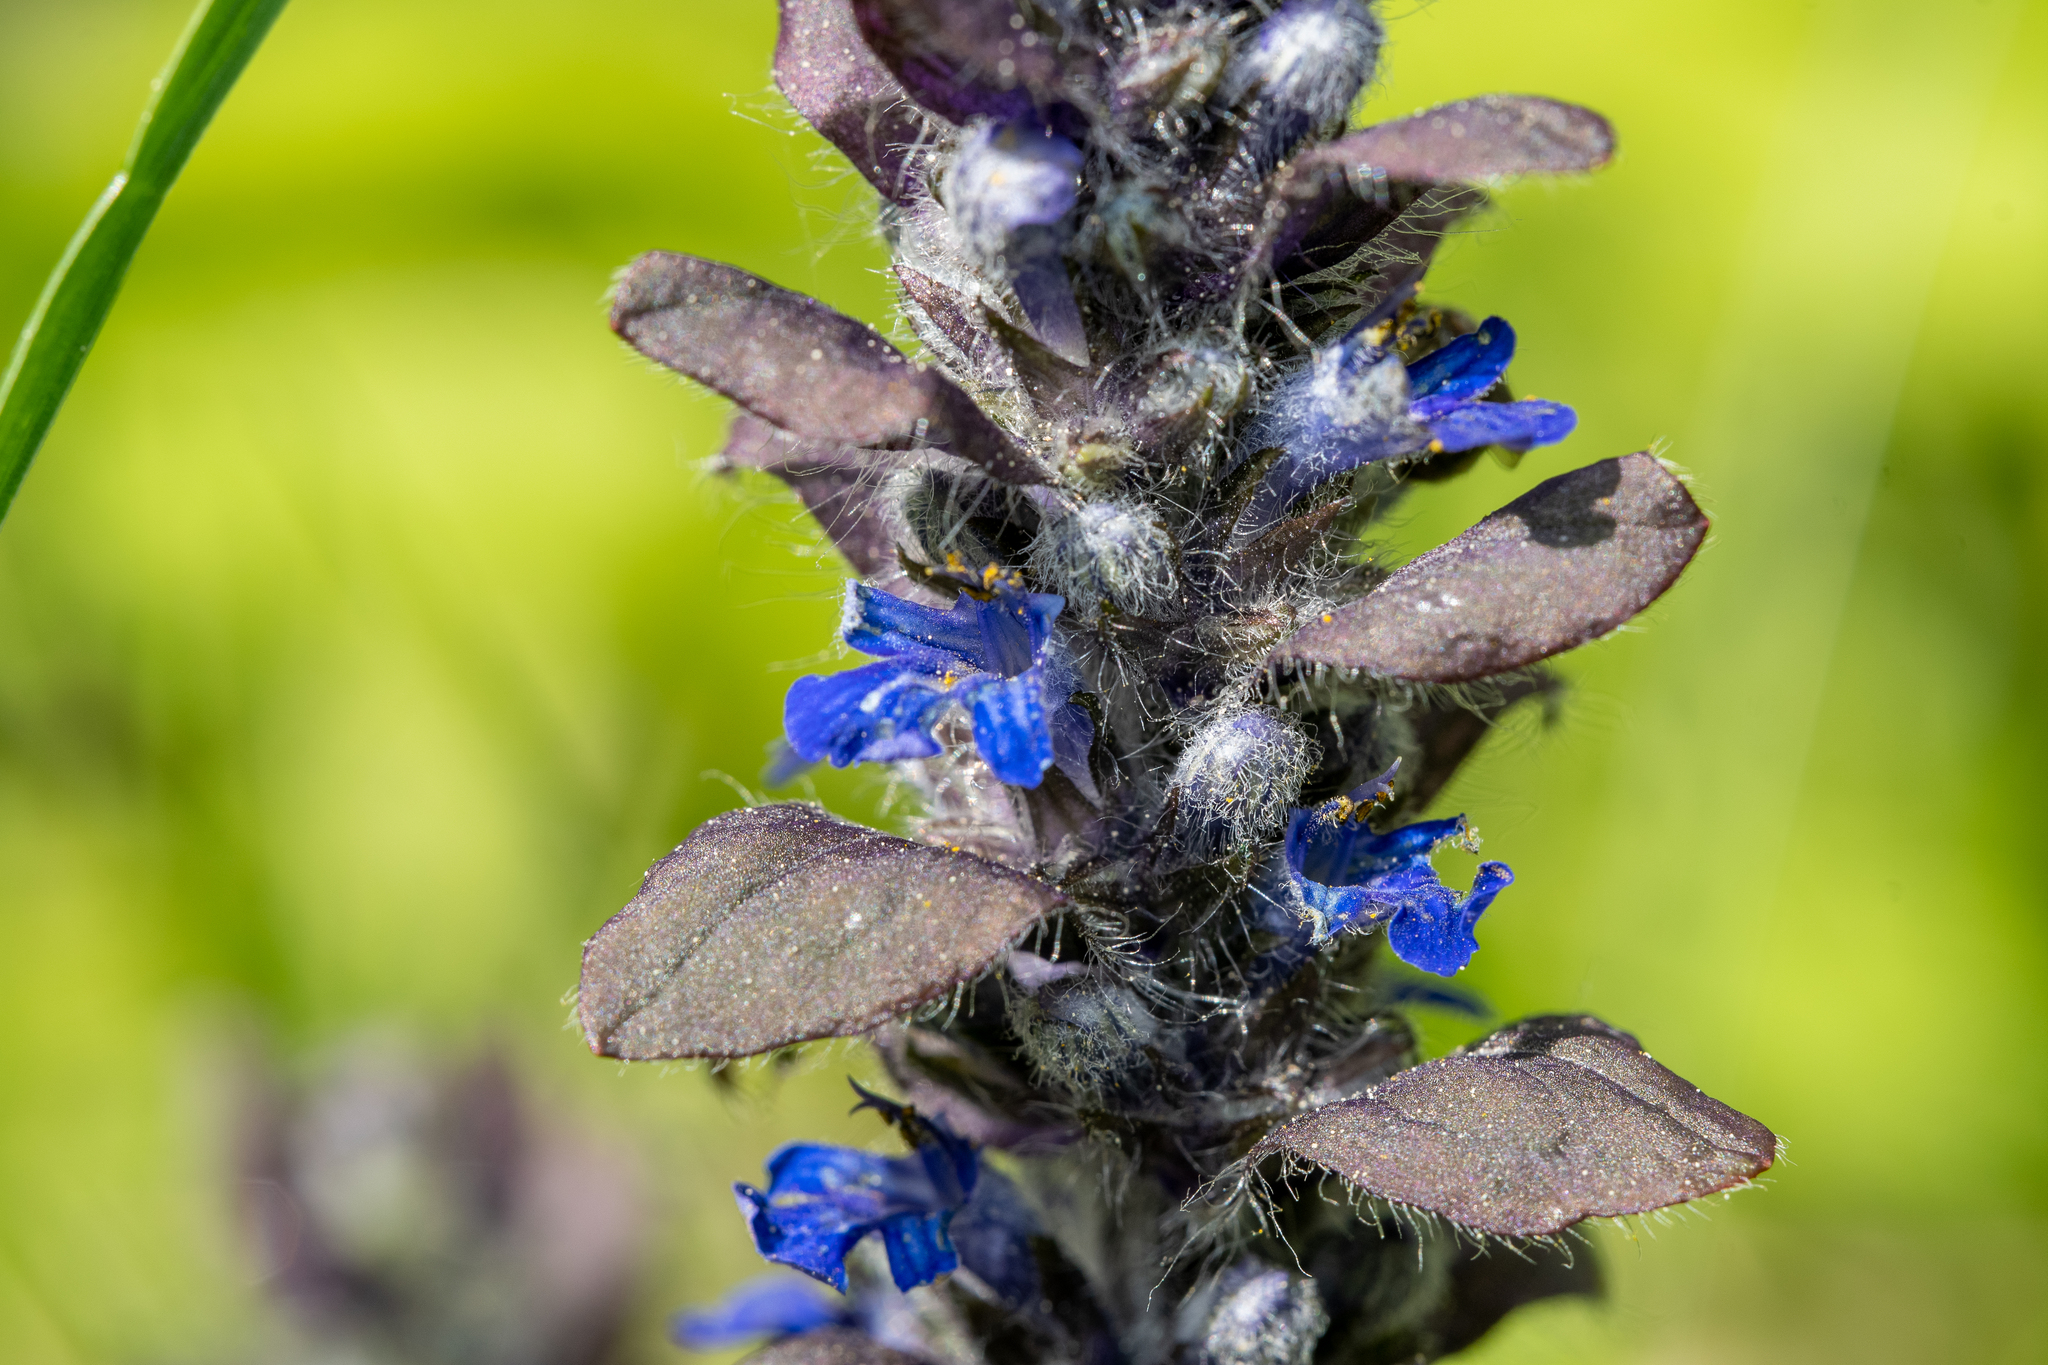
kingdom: Plantae
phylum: Tracheophyta
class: Magnoliopsida
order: Lamiales
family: Lamiaceae
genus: Ajuga
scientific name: Ajuga reptans
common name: Bugle
